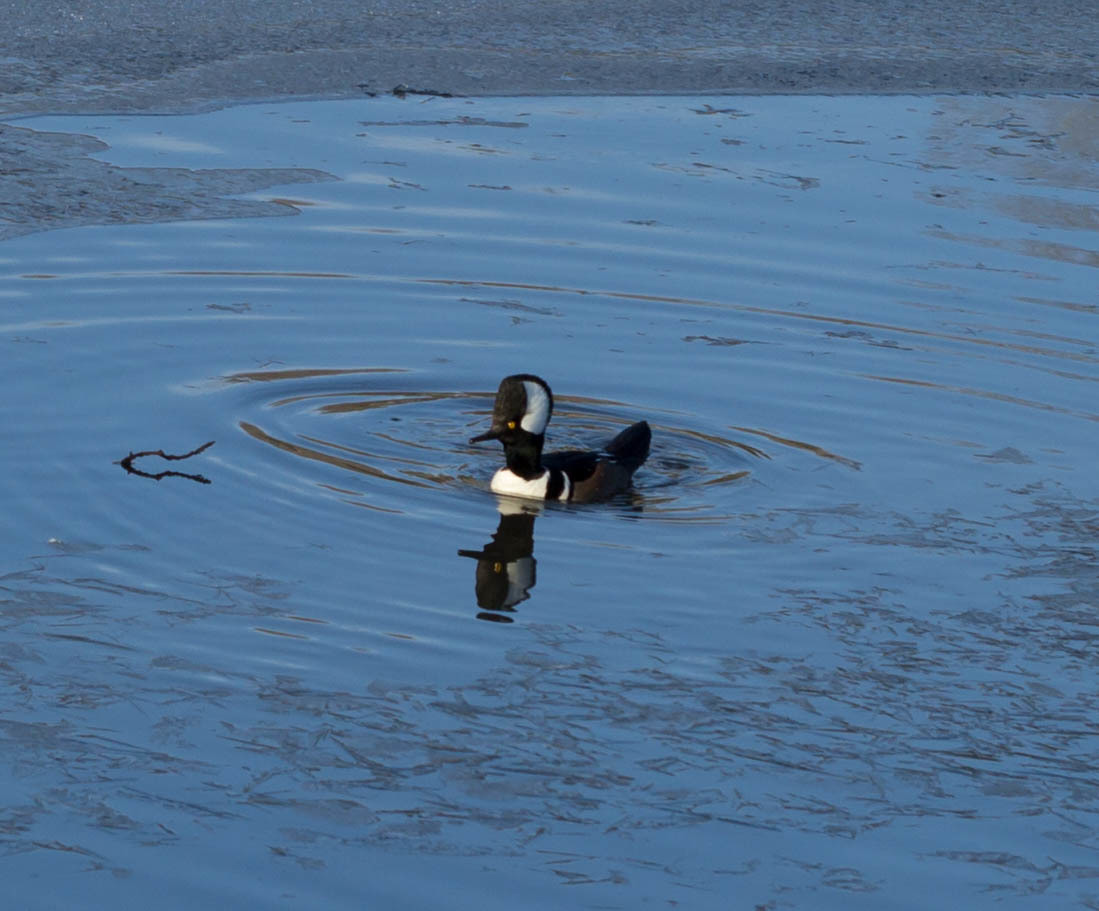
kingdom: Animalia
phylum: Chordata
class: Aves
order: Anseriformes
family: Anatidae
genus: Lophodytes
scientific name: Lophodytes cucullatus
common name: Hooded merganser
